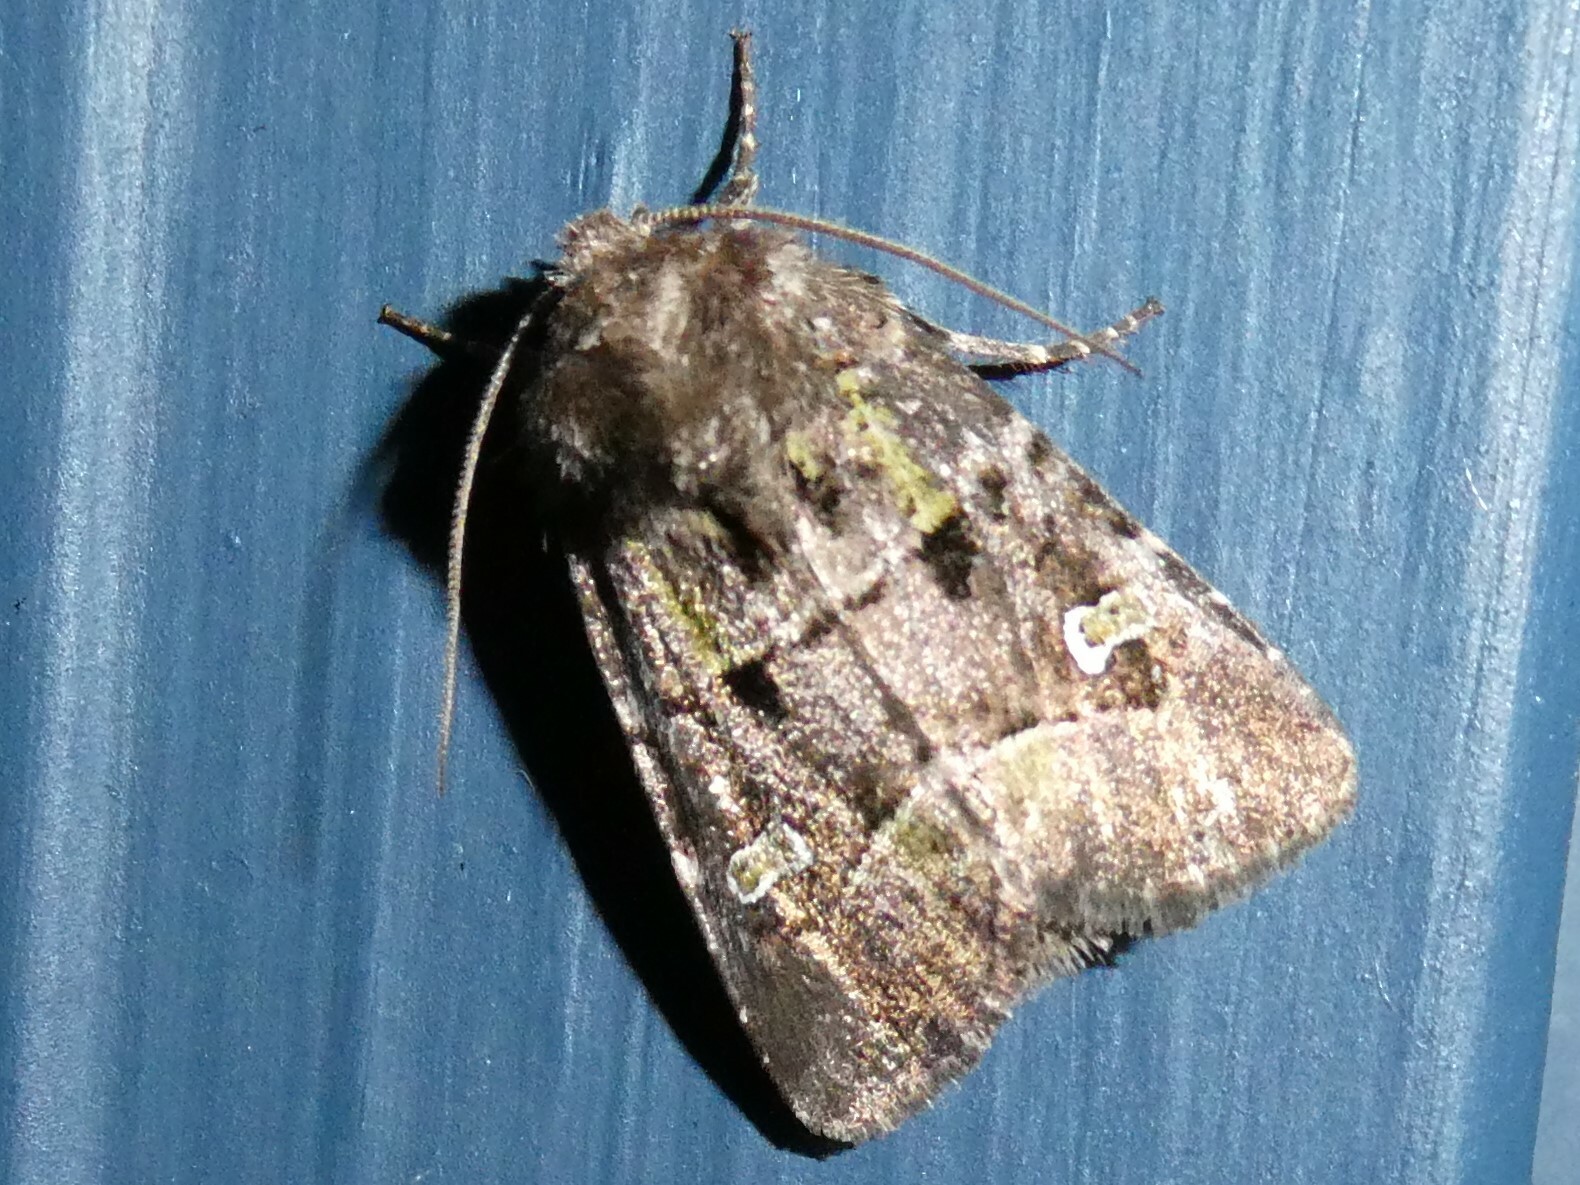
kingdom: Animalia
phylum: Arthropoda
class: Insecta
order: Lepidoptera
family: Noctuidae
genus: Lacinipolia
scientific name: Lacinipolia renigera
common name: Kidney-spotted minor
